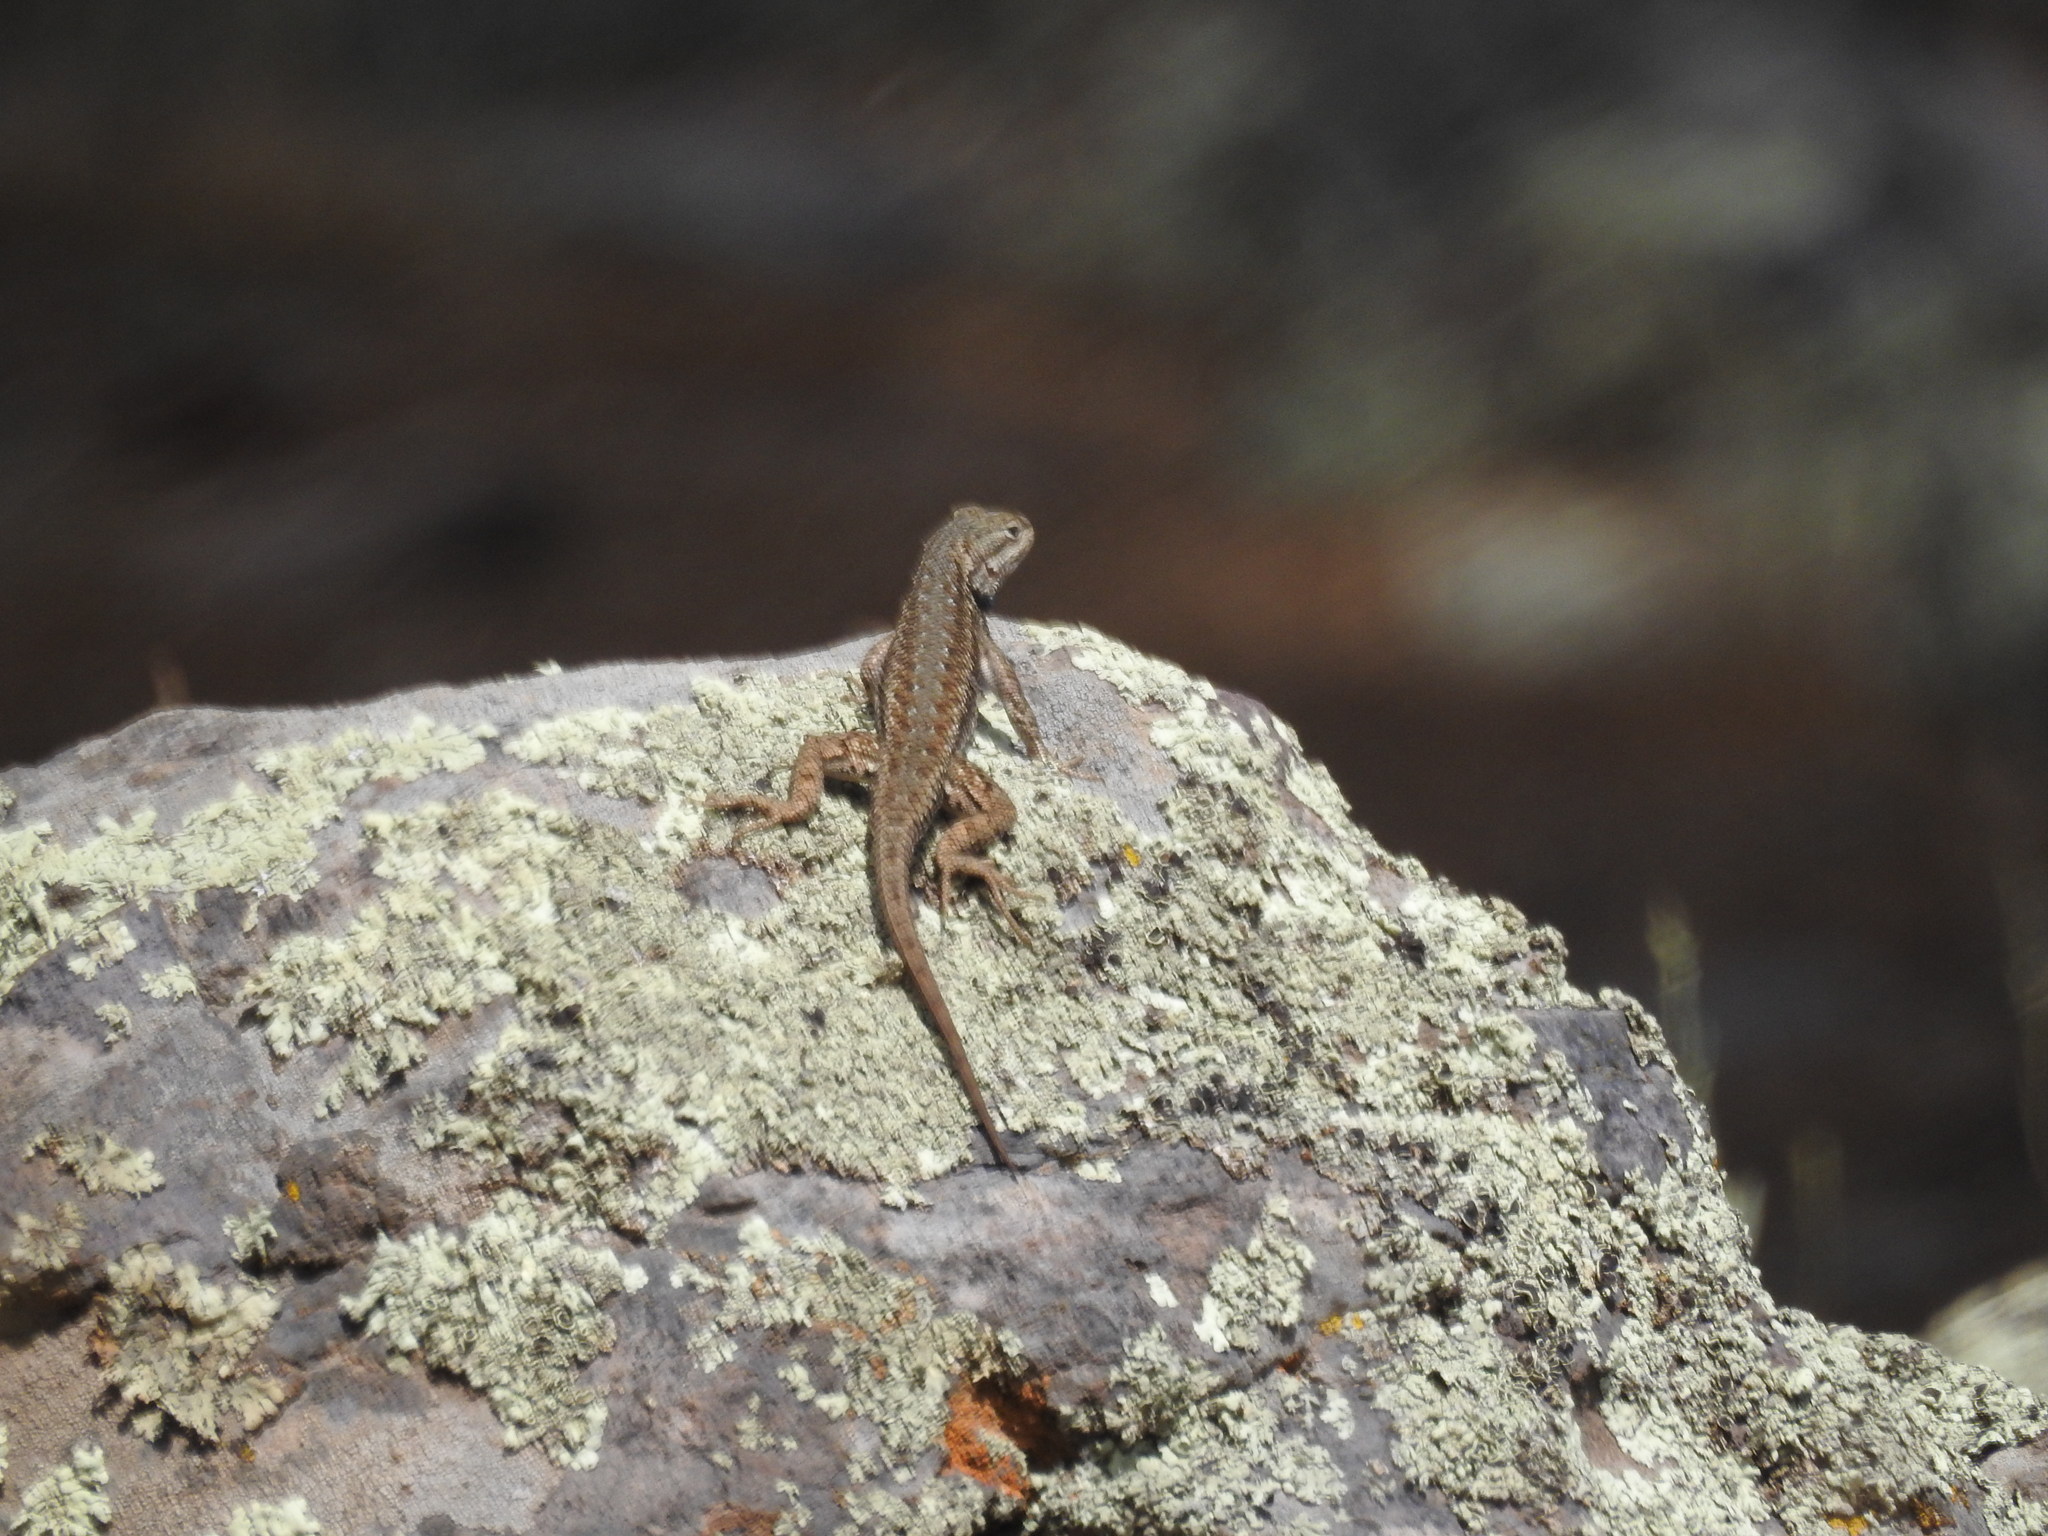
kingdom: Animalia
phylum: Chordata
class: Squamata
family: Phrynosomatidae
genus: Sceloporus
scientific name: Sceloporus tristichus
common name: Plateau fence lizard
